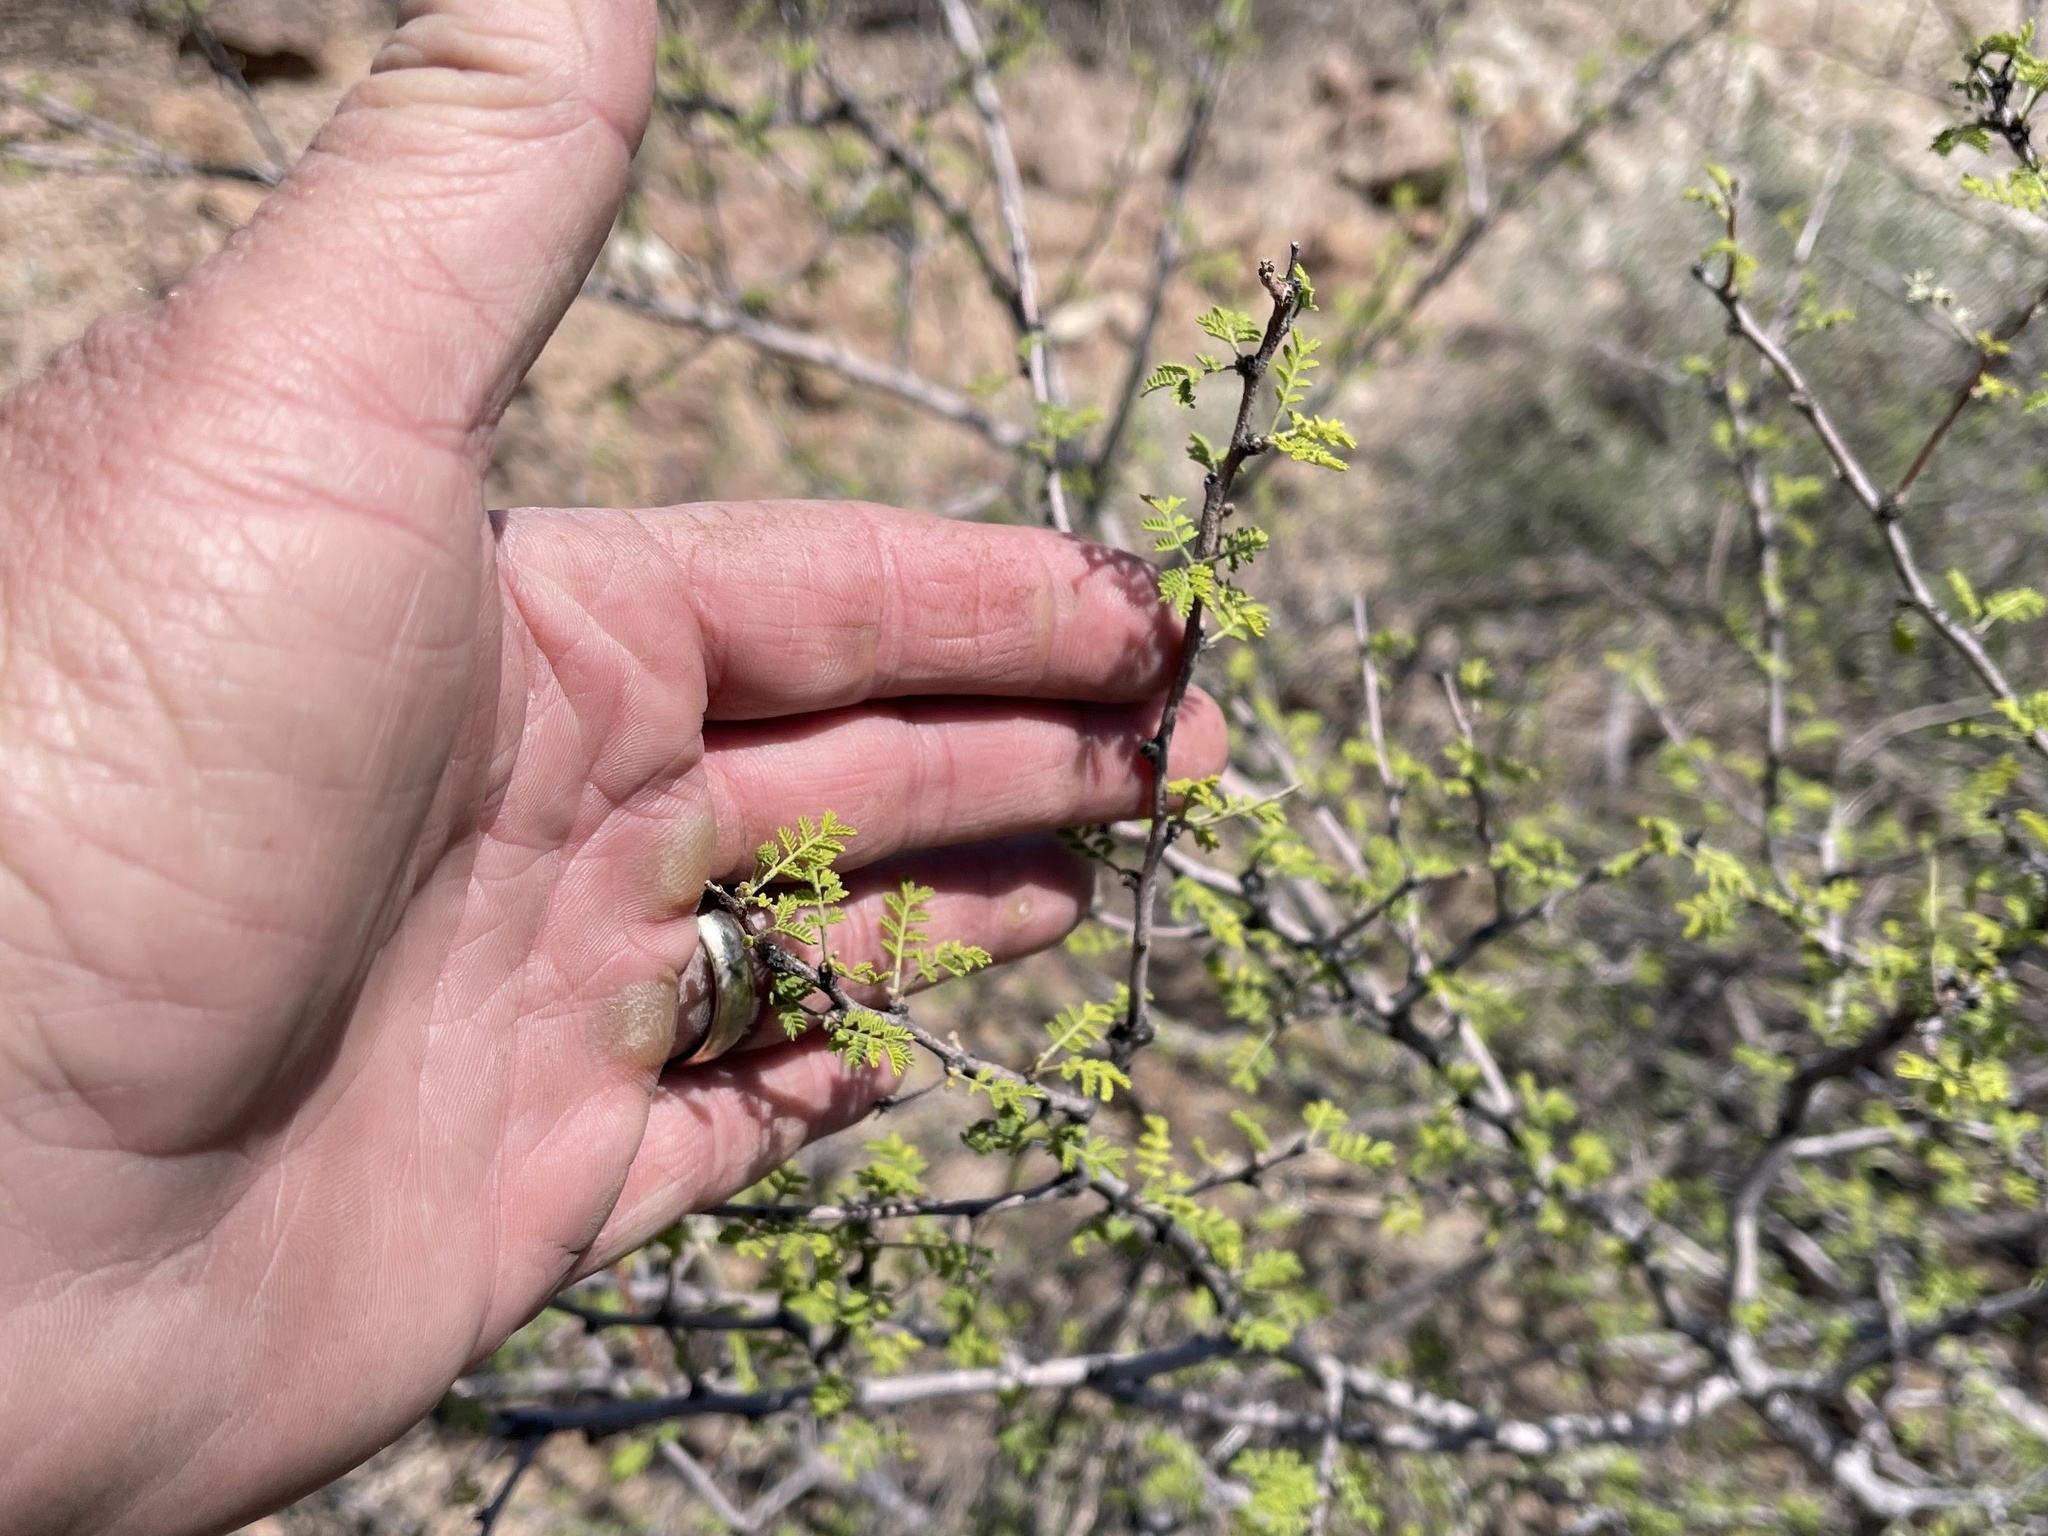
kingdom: Plantae
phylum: Tracheophyta
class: Magnoliopsida
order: Fabales
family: Fabaceae
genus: Vachellia
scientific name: Vachellia constricta
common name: Mescat acacia
